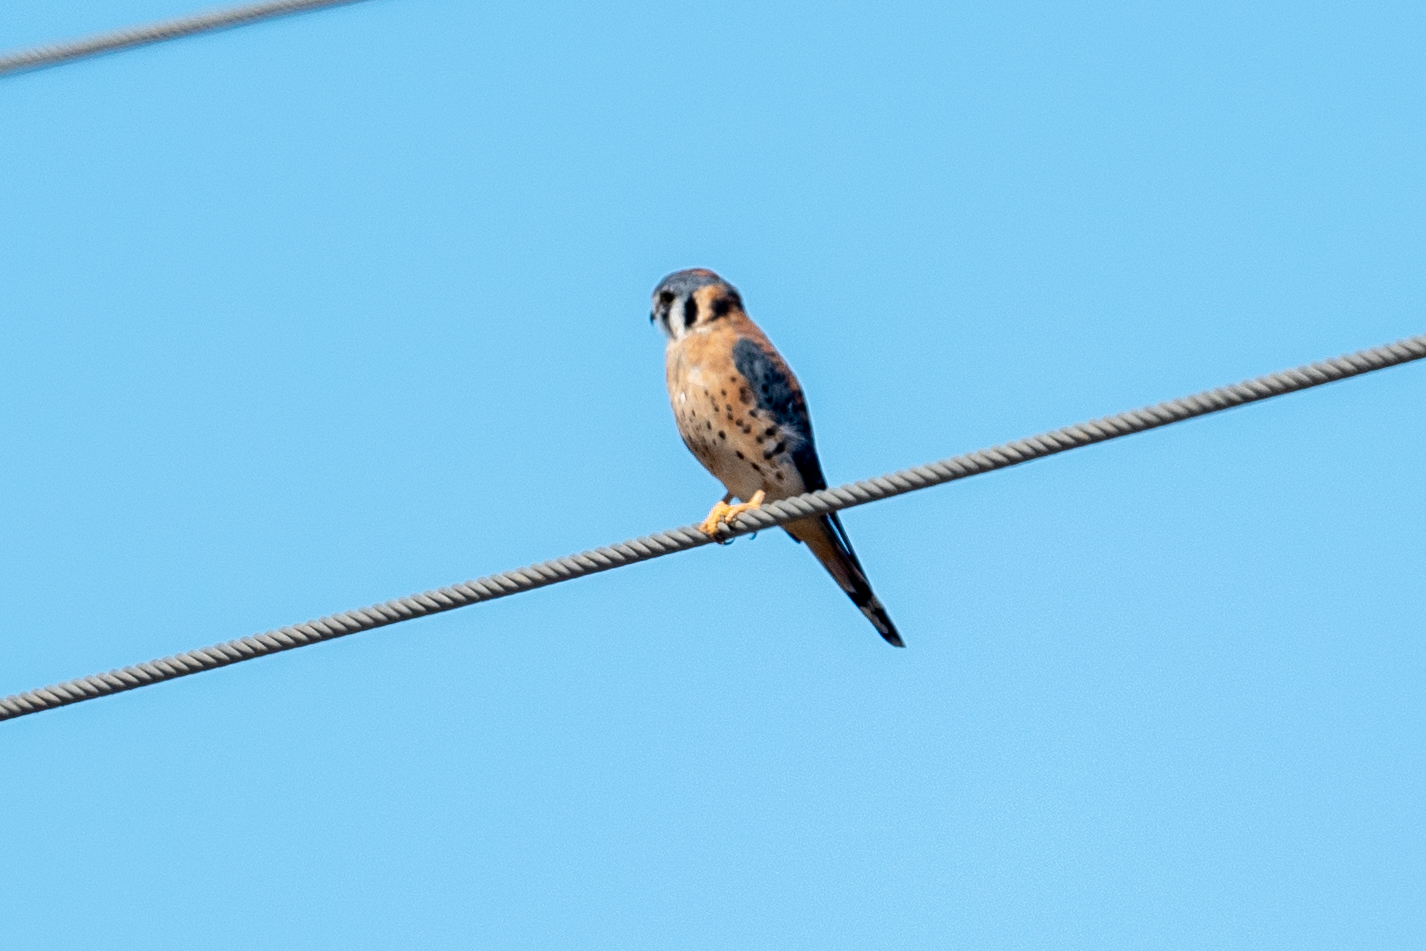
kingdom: Animalia
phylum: Chordata
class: Aves
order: Falconiformes
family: Falconidae
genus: Falco
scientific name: Falco sparverius
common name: American kestrel
